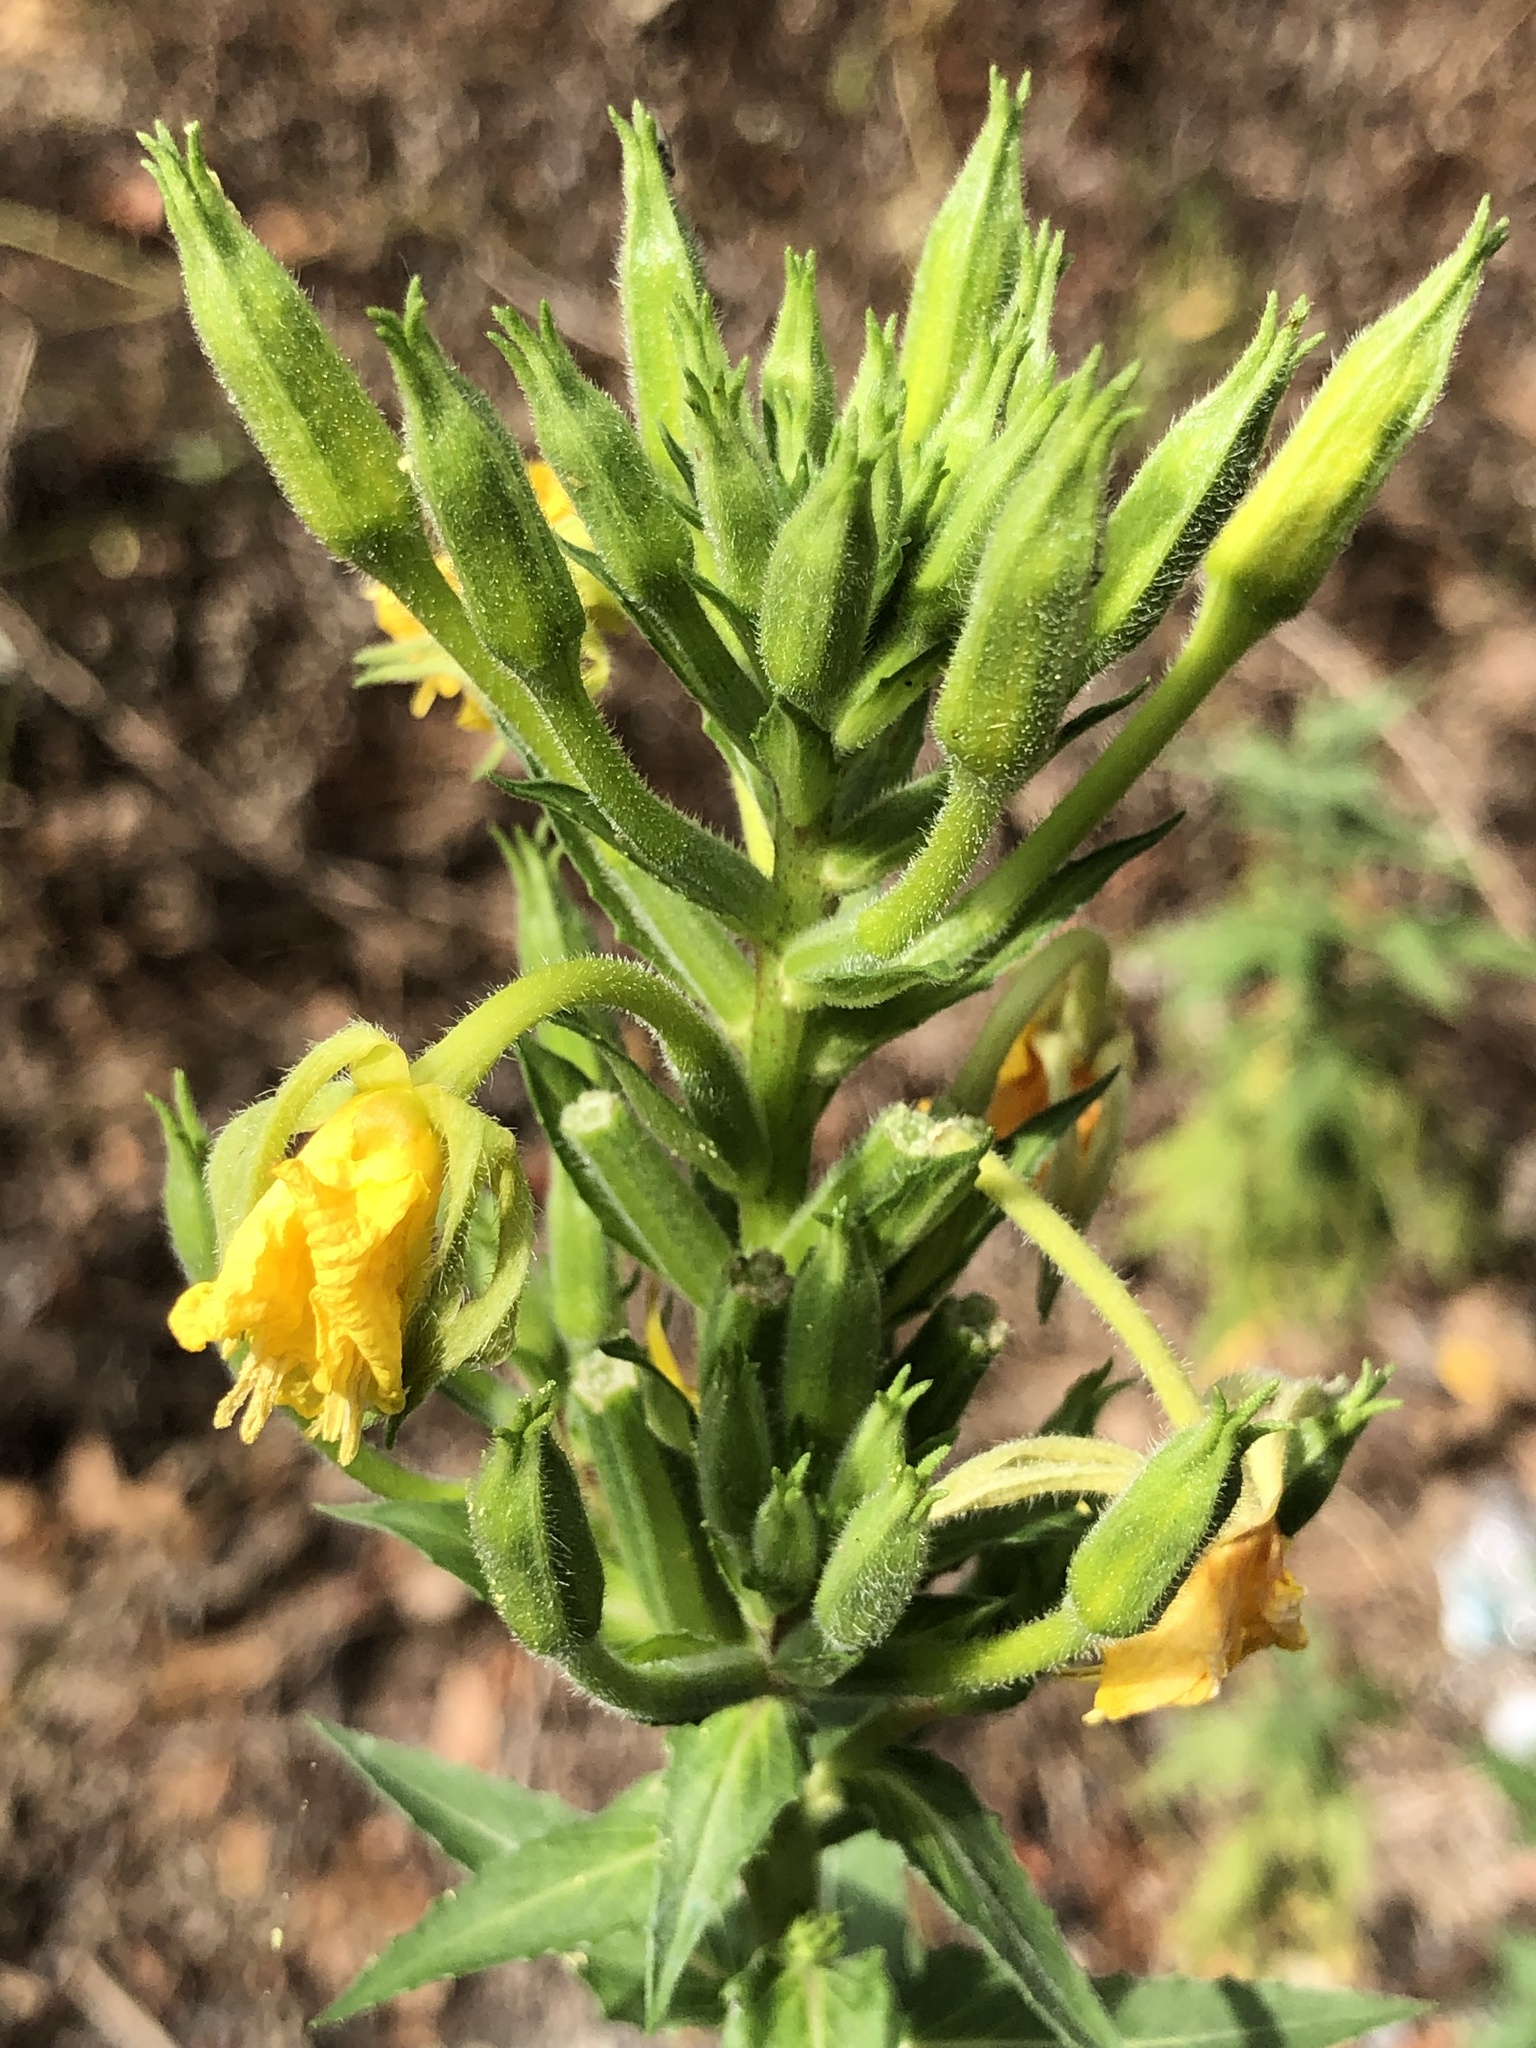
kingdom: Plantae
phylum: Tracheophyta
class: Magnoliopsida
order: Myrtales
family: Onagraceae
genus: Oenothera
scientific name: Oenothera biennis
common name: Common evening-primrose
